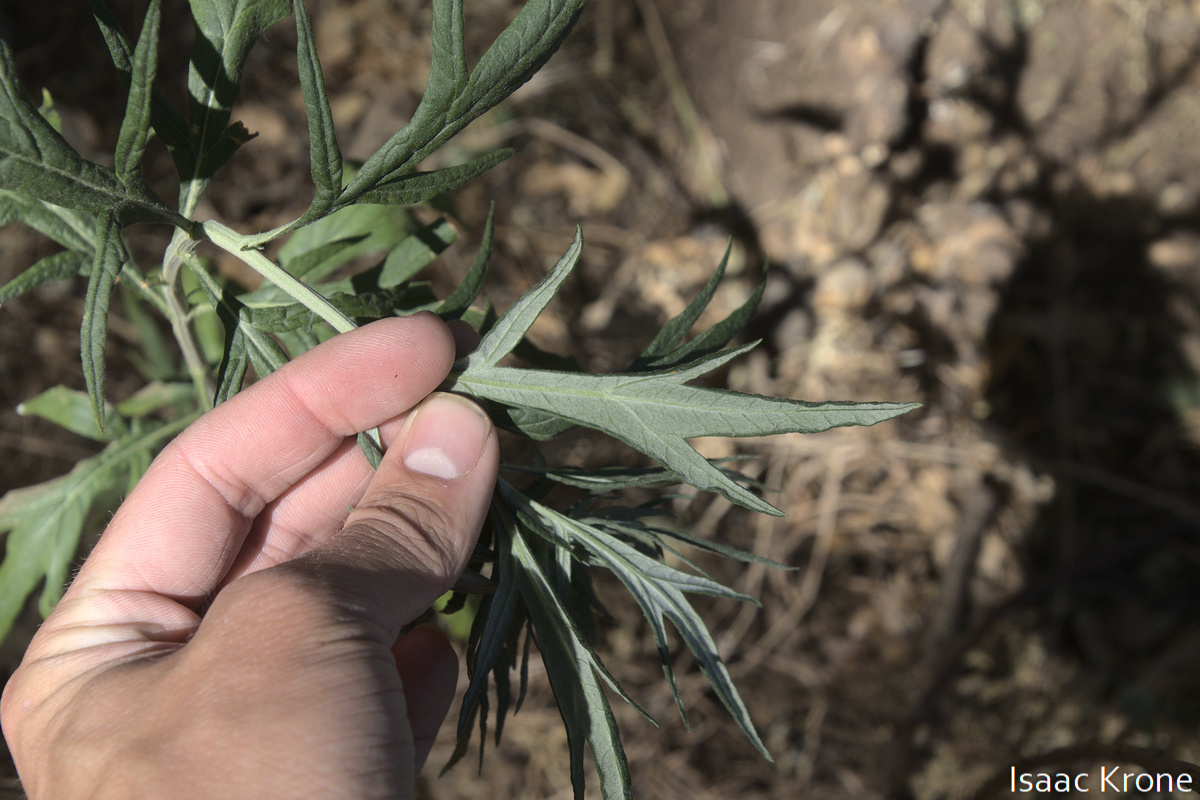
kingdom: Plantae
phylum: Tracheophyta
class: Magnoliopsida
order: Asterales
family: Asteraceae
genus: Artemisia
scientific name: Artemisia douglasiana
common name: Northwest mugwort
